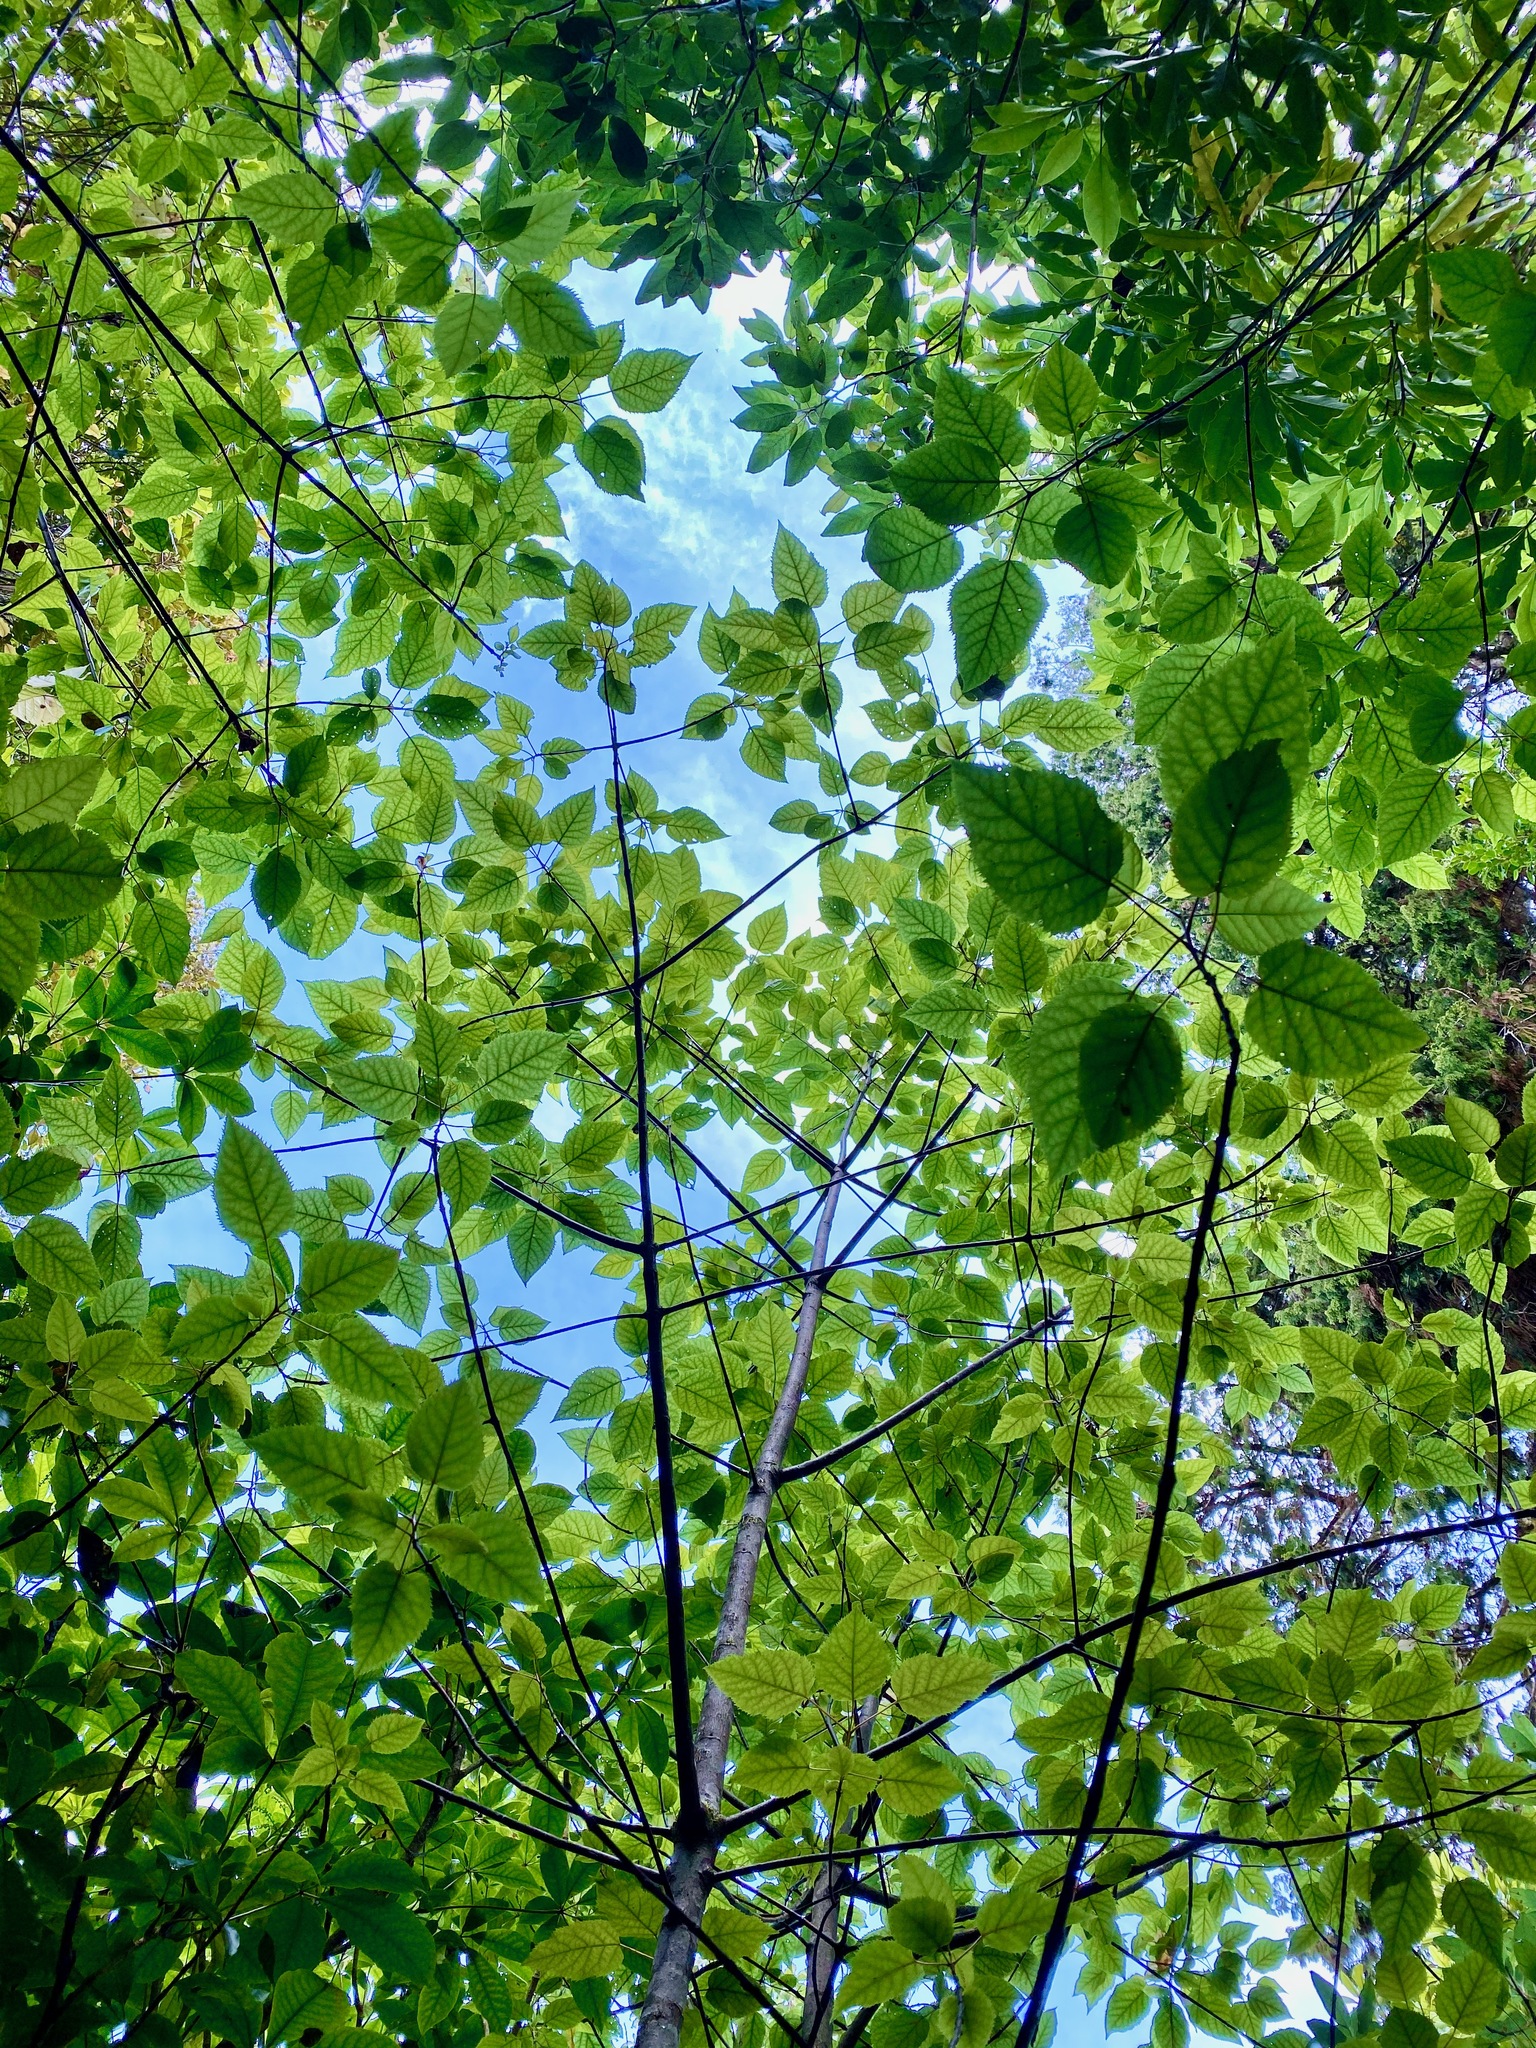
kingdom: Plantae
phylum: Tracheophyta
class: Magnoliopsida
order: Oxalidales
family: Elaeocarpaceae
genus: Aristotelia
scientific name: Aristotelia serrata
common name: New zealand wineberry
